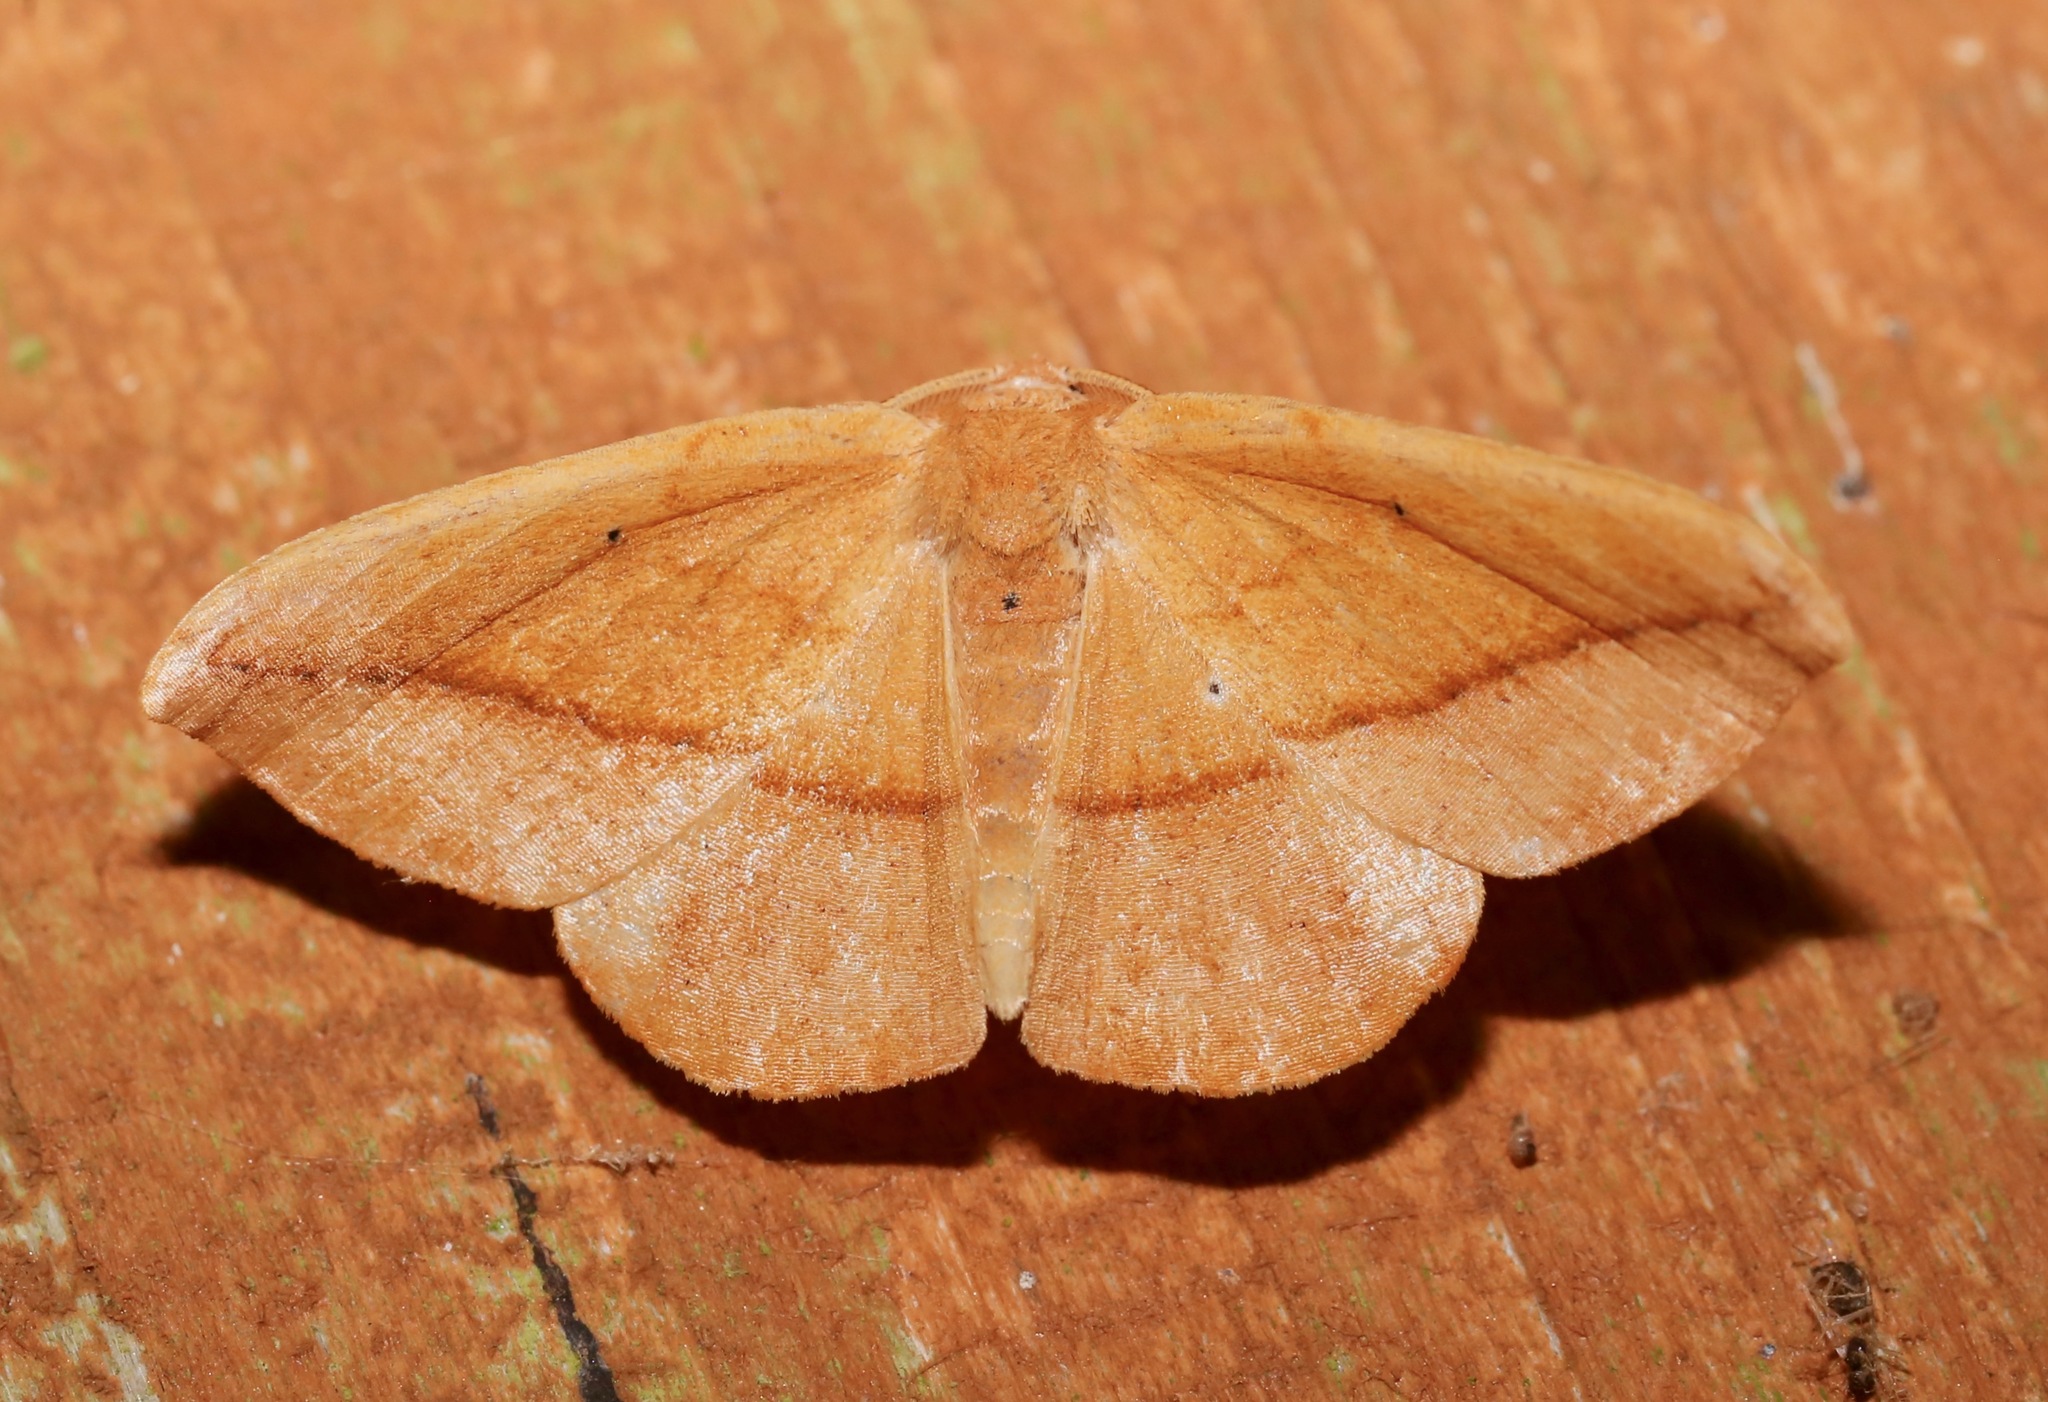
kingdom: Animalia
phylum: Arthropoda
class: Insecta
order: Lepidoptera
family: Geometridae
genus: Patalene
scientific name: Patalene olyzonaria
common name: Juniper geometer moth
